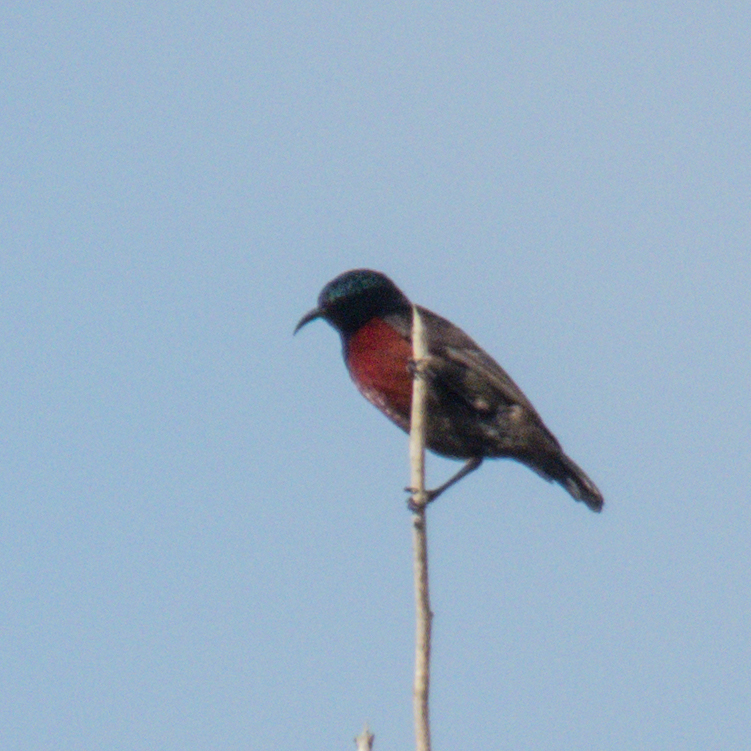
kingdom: Animalia
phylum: Chordata
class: Aves
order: Passeriformes
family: Nectariniidae
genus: Leptocoma
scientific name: Leptocoma brasiliana
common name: Van hasselt's sunbird
